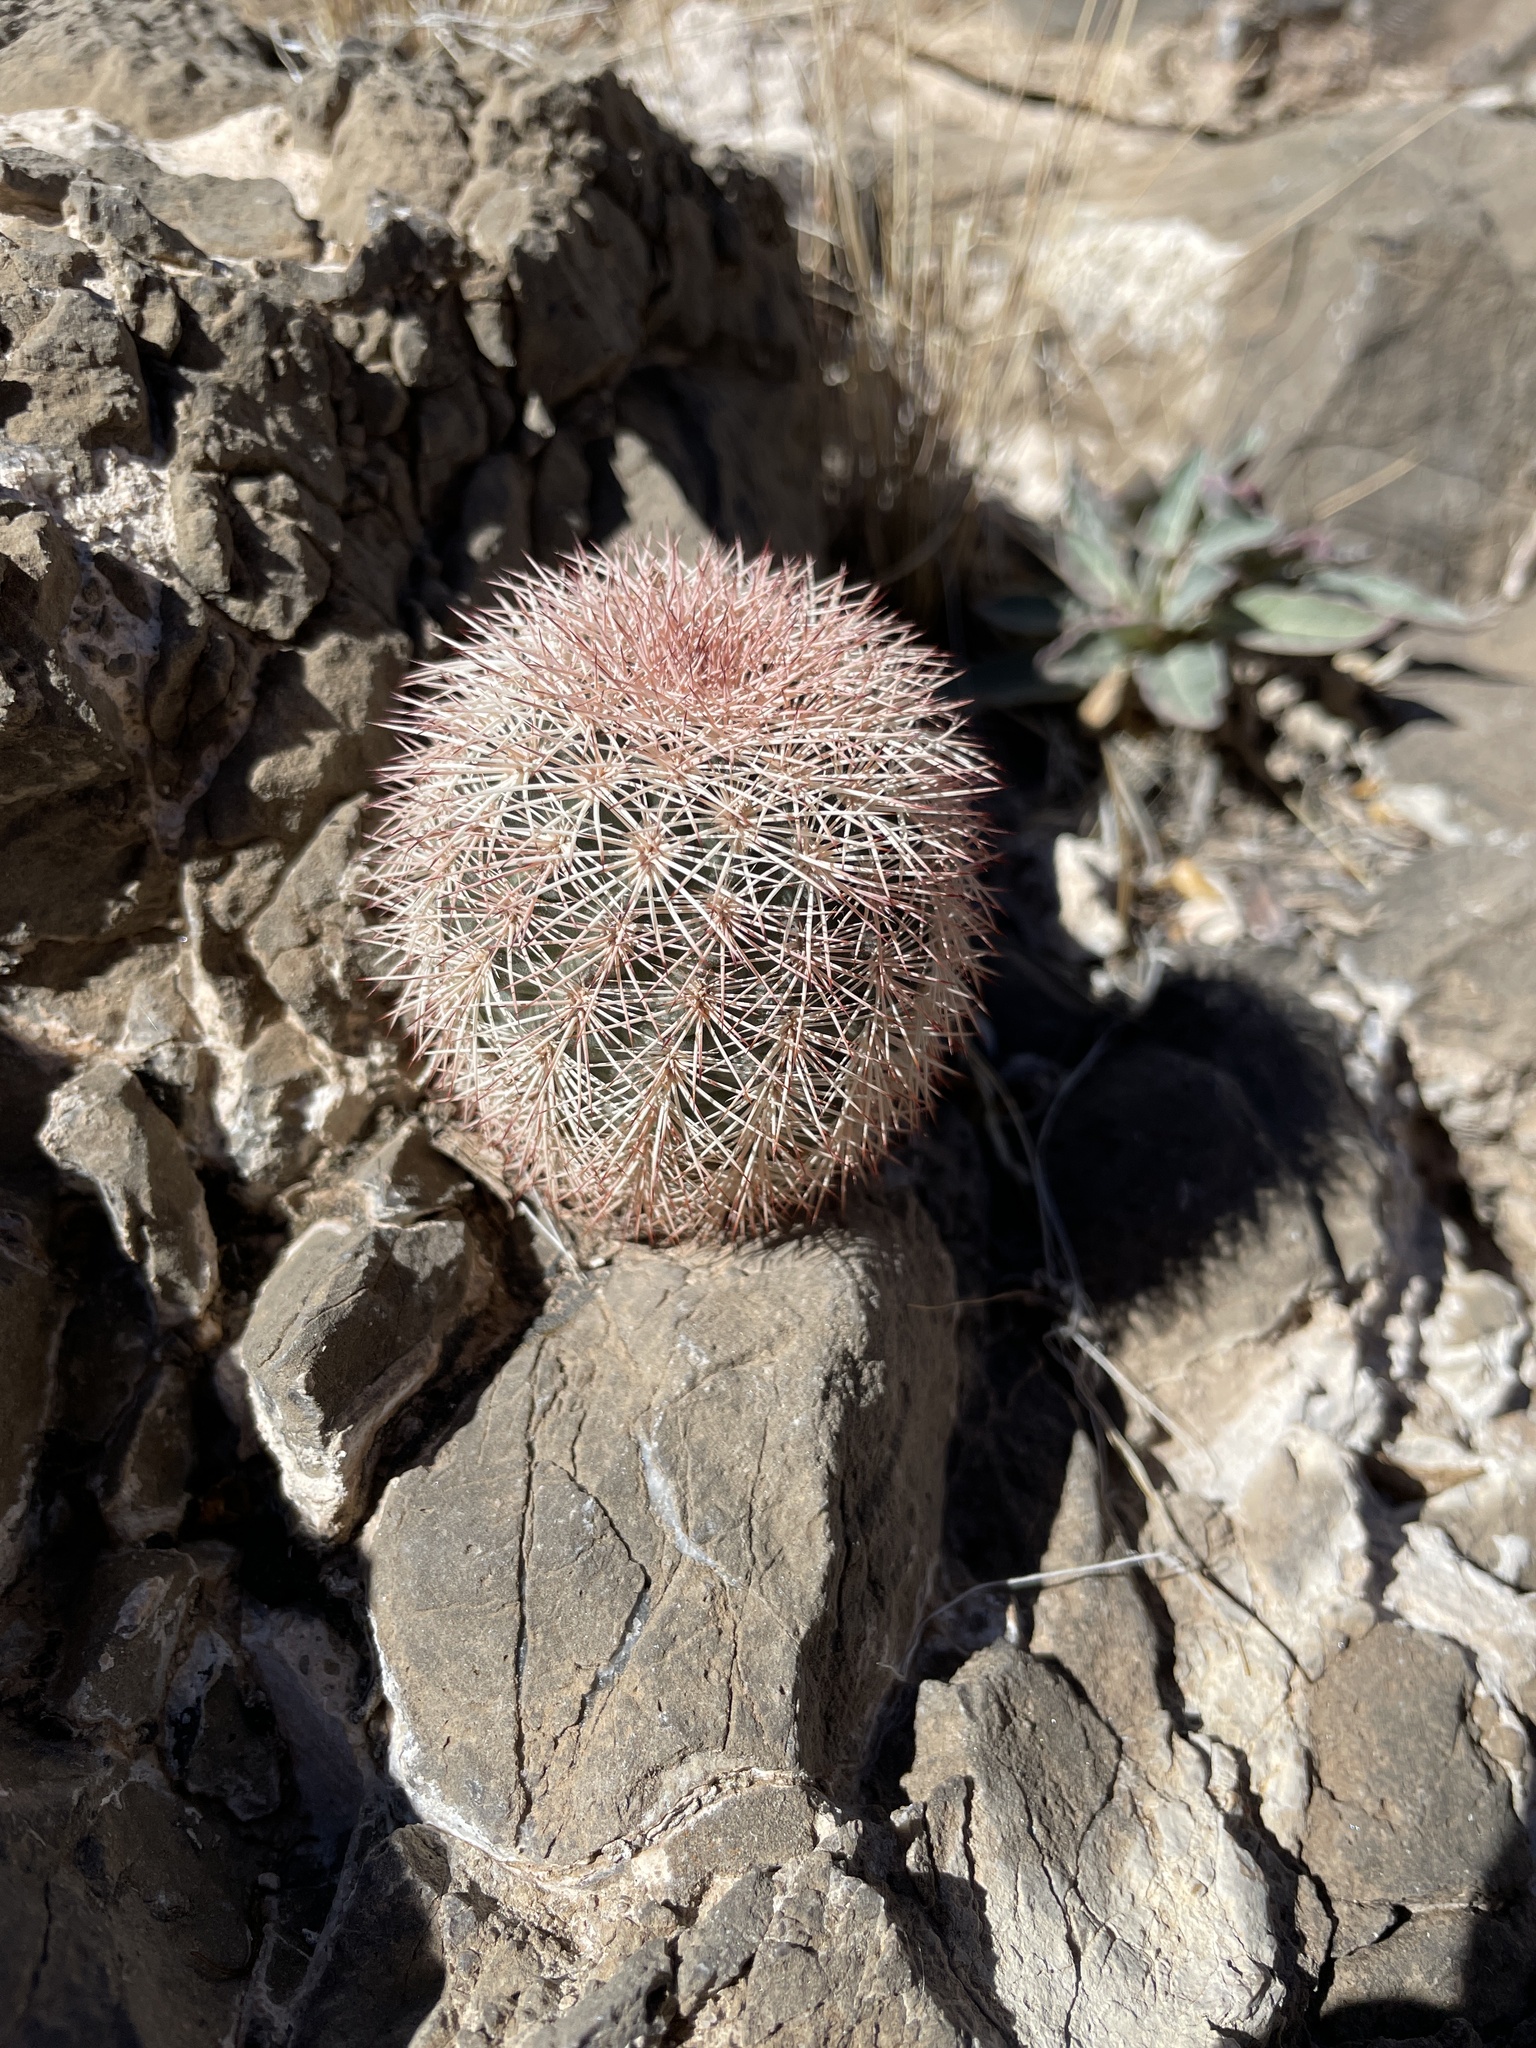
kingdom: Plantae
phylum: Tracheophyta
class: Magnoliopsida
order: Caryophyllales
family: Cactaceae
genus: Echinocereus
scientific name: Echinocereus dasyacanthus
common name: Spiny hedgehog cactus
